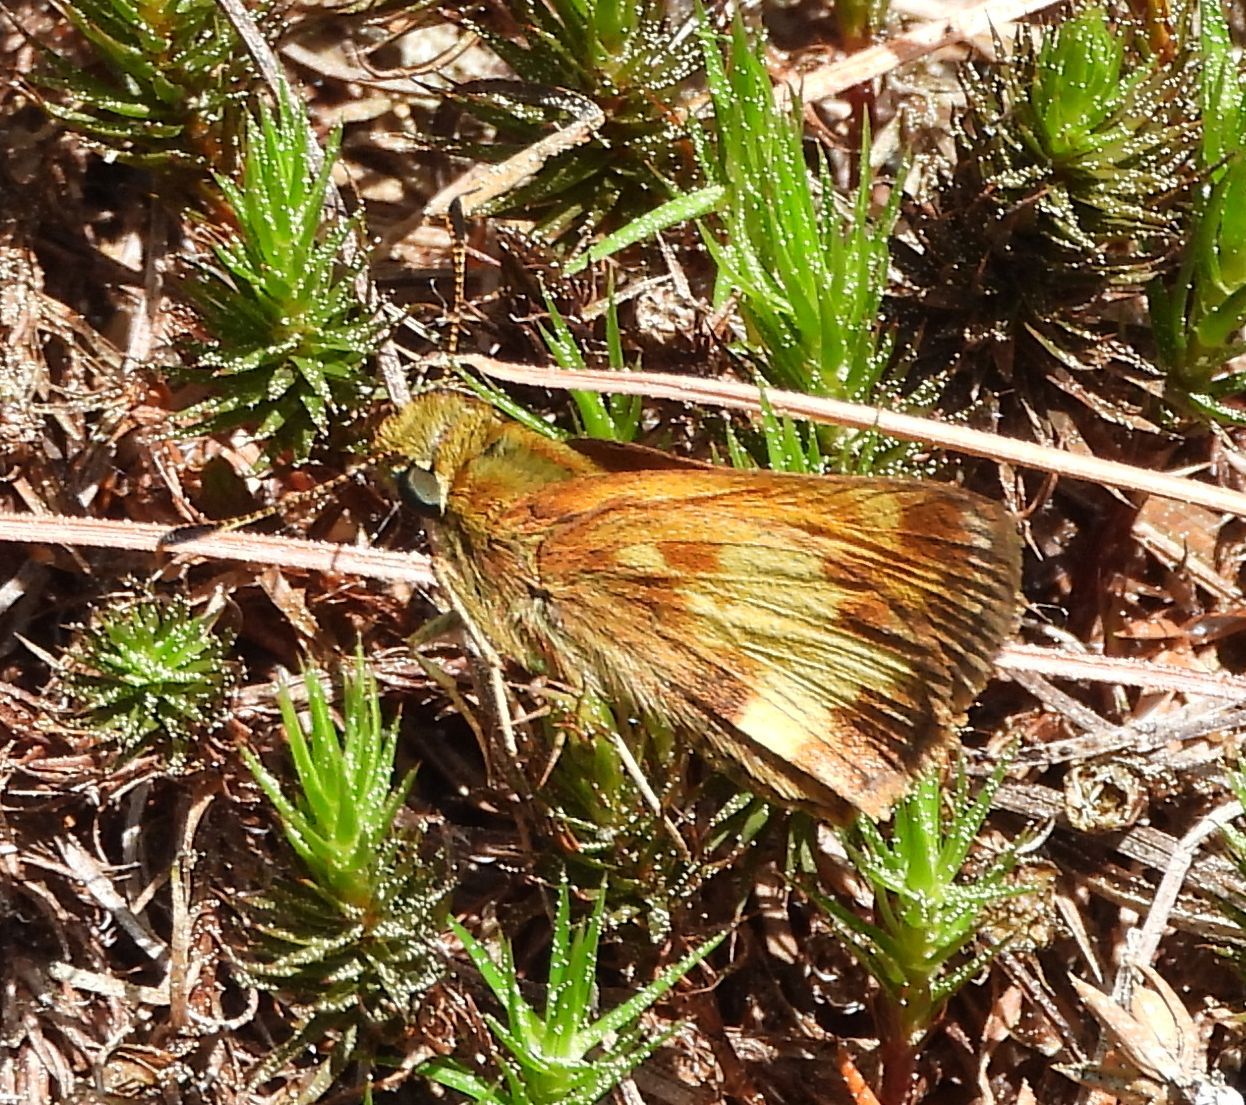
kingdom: Animalia
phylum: Arthropoda
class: Insecta
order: Lepidoptera
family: Hesperiidae
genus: Lon
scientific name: Lon hobomok
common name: Hobomok skipper
